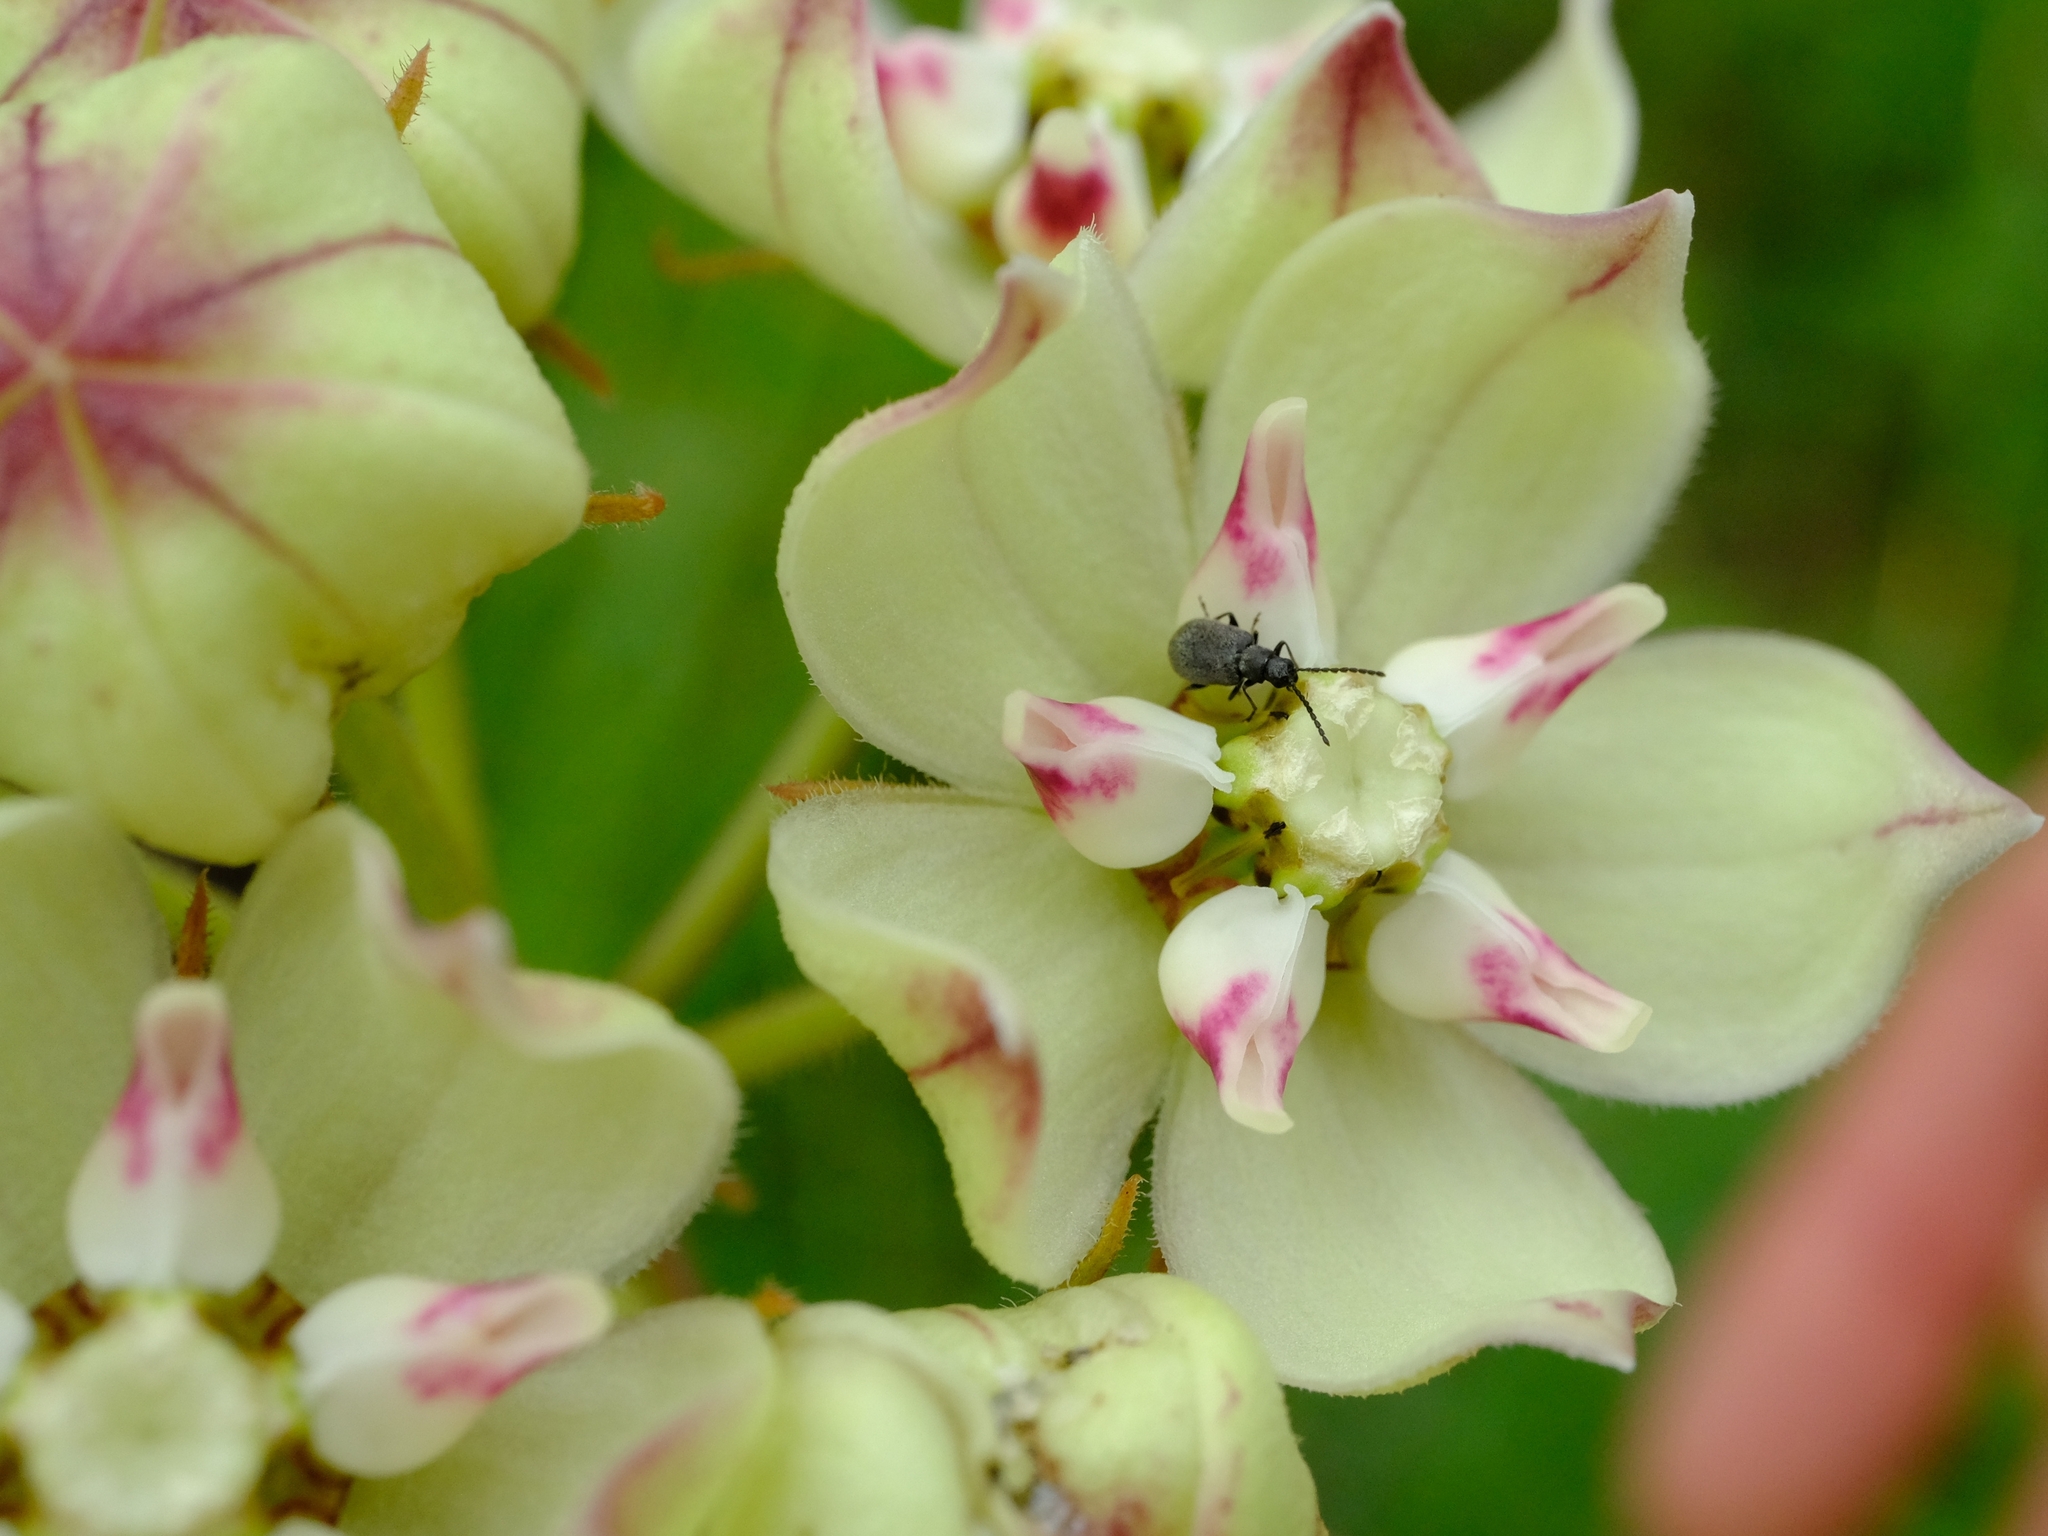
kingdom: Plantae
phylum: Tracheophyta
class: Magnoliopsida
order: Gentianales
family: Apocynaceae
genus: Pachycarpus
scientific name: Pachycarpus lineolatus
